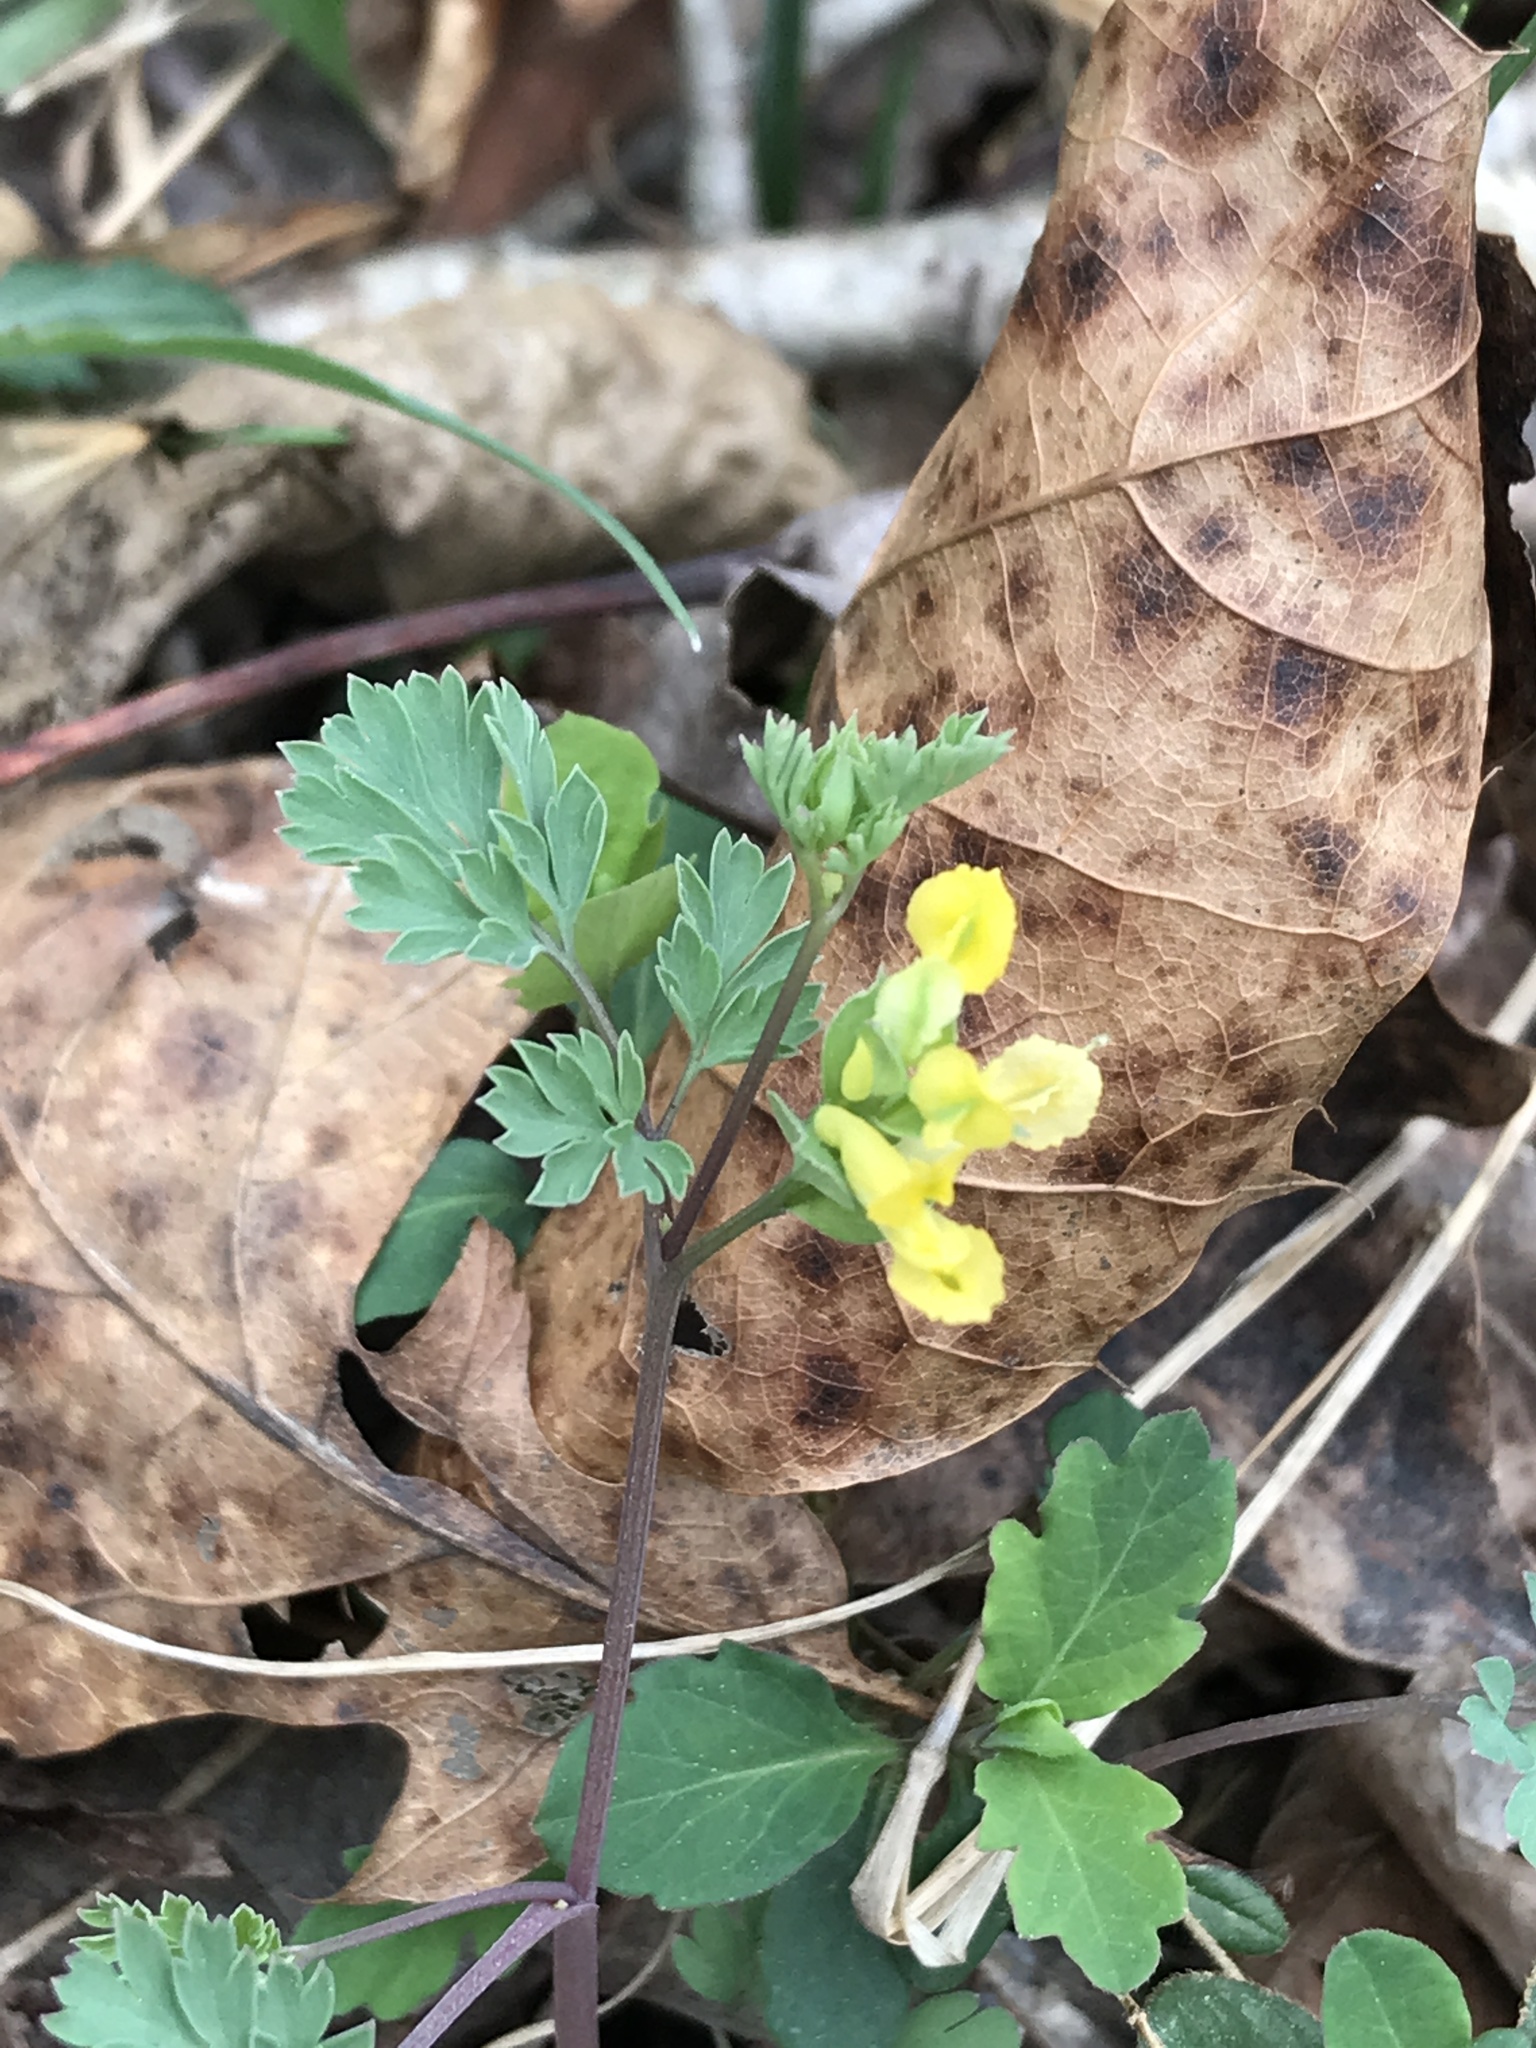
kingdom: Plantae
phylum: Tracheophyta
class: Magnoliopsida
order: Ranunculales
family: Papaveraceae
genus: Corydalis
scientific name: Corydalis flavula
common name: Yellow corydalis
